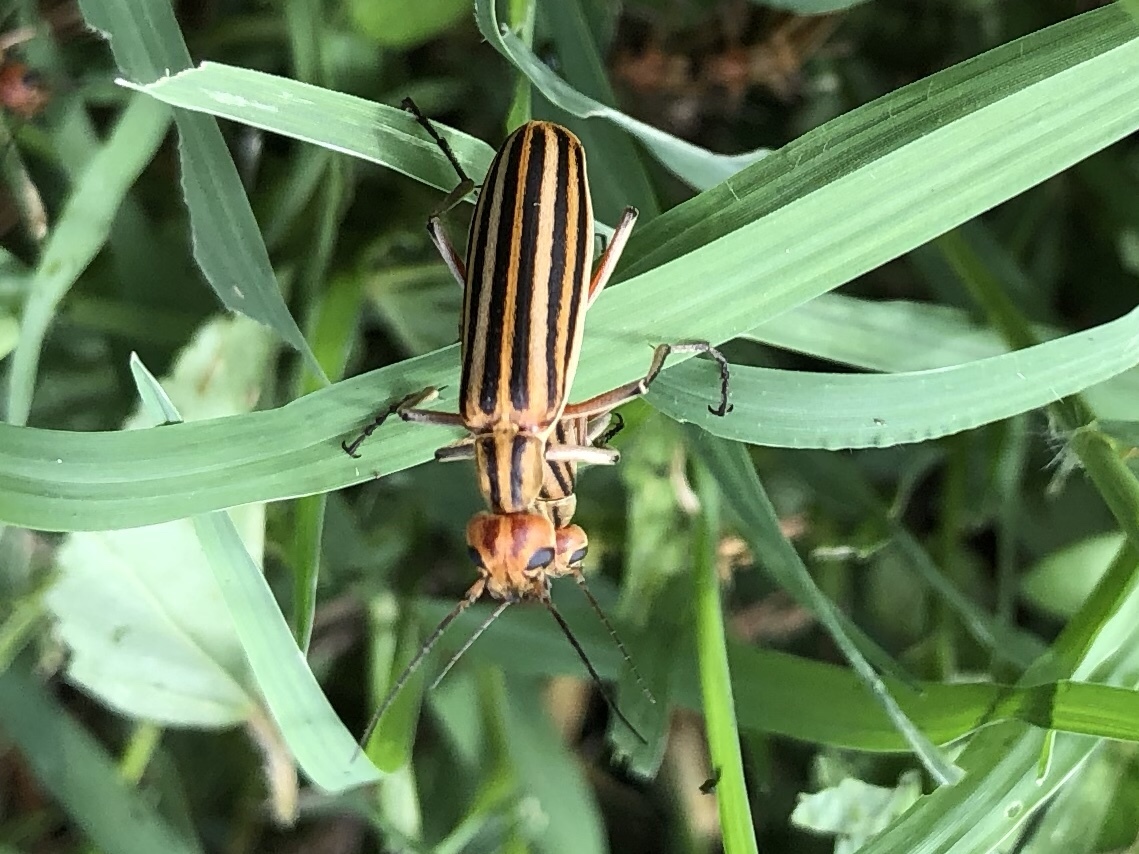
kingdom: Animalia
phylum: Arthropoda
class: Insecta
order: Coleoptera
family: Meloidae
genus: Epicauta
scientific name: Epicauta vittata
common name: Old-fashioned potato beetle
